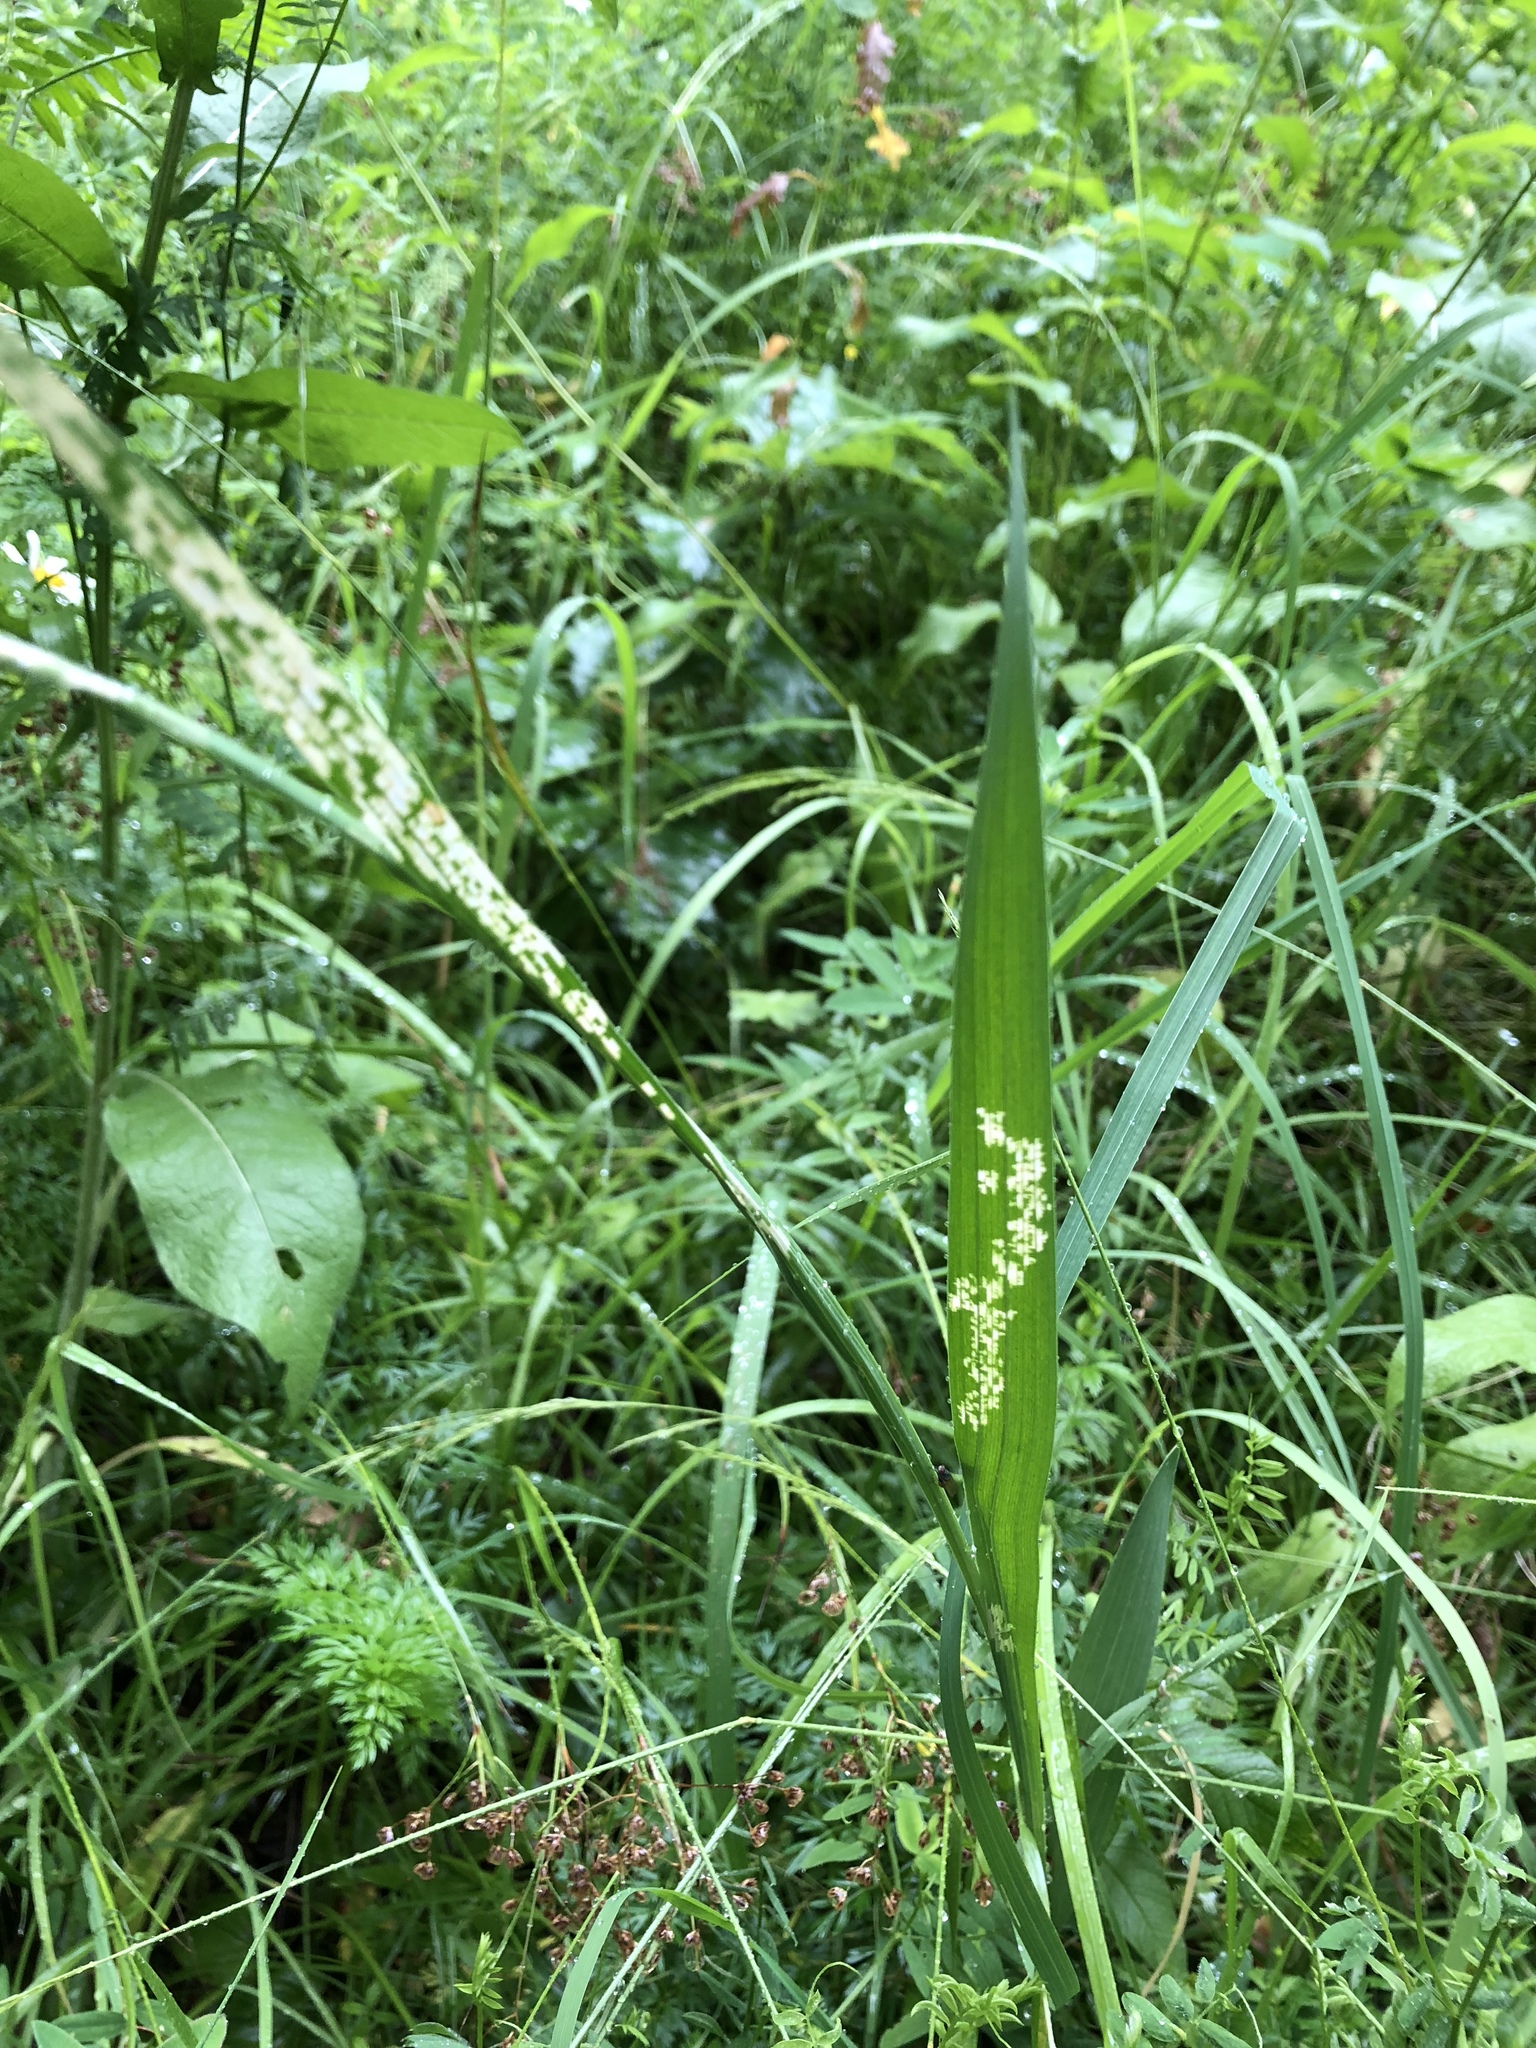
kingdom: Plantae
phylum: Tracheophyta
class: Liliopsida
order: Asparagales
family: Iridaceae
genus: Gladiolus
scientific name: Gladiolus imbricatus
